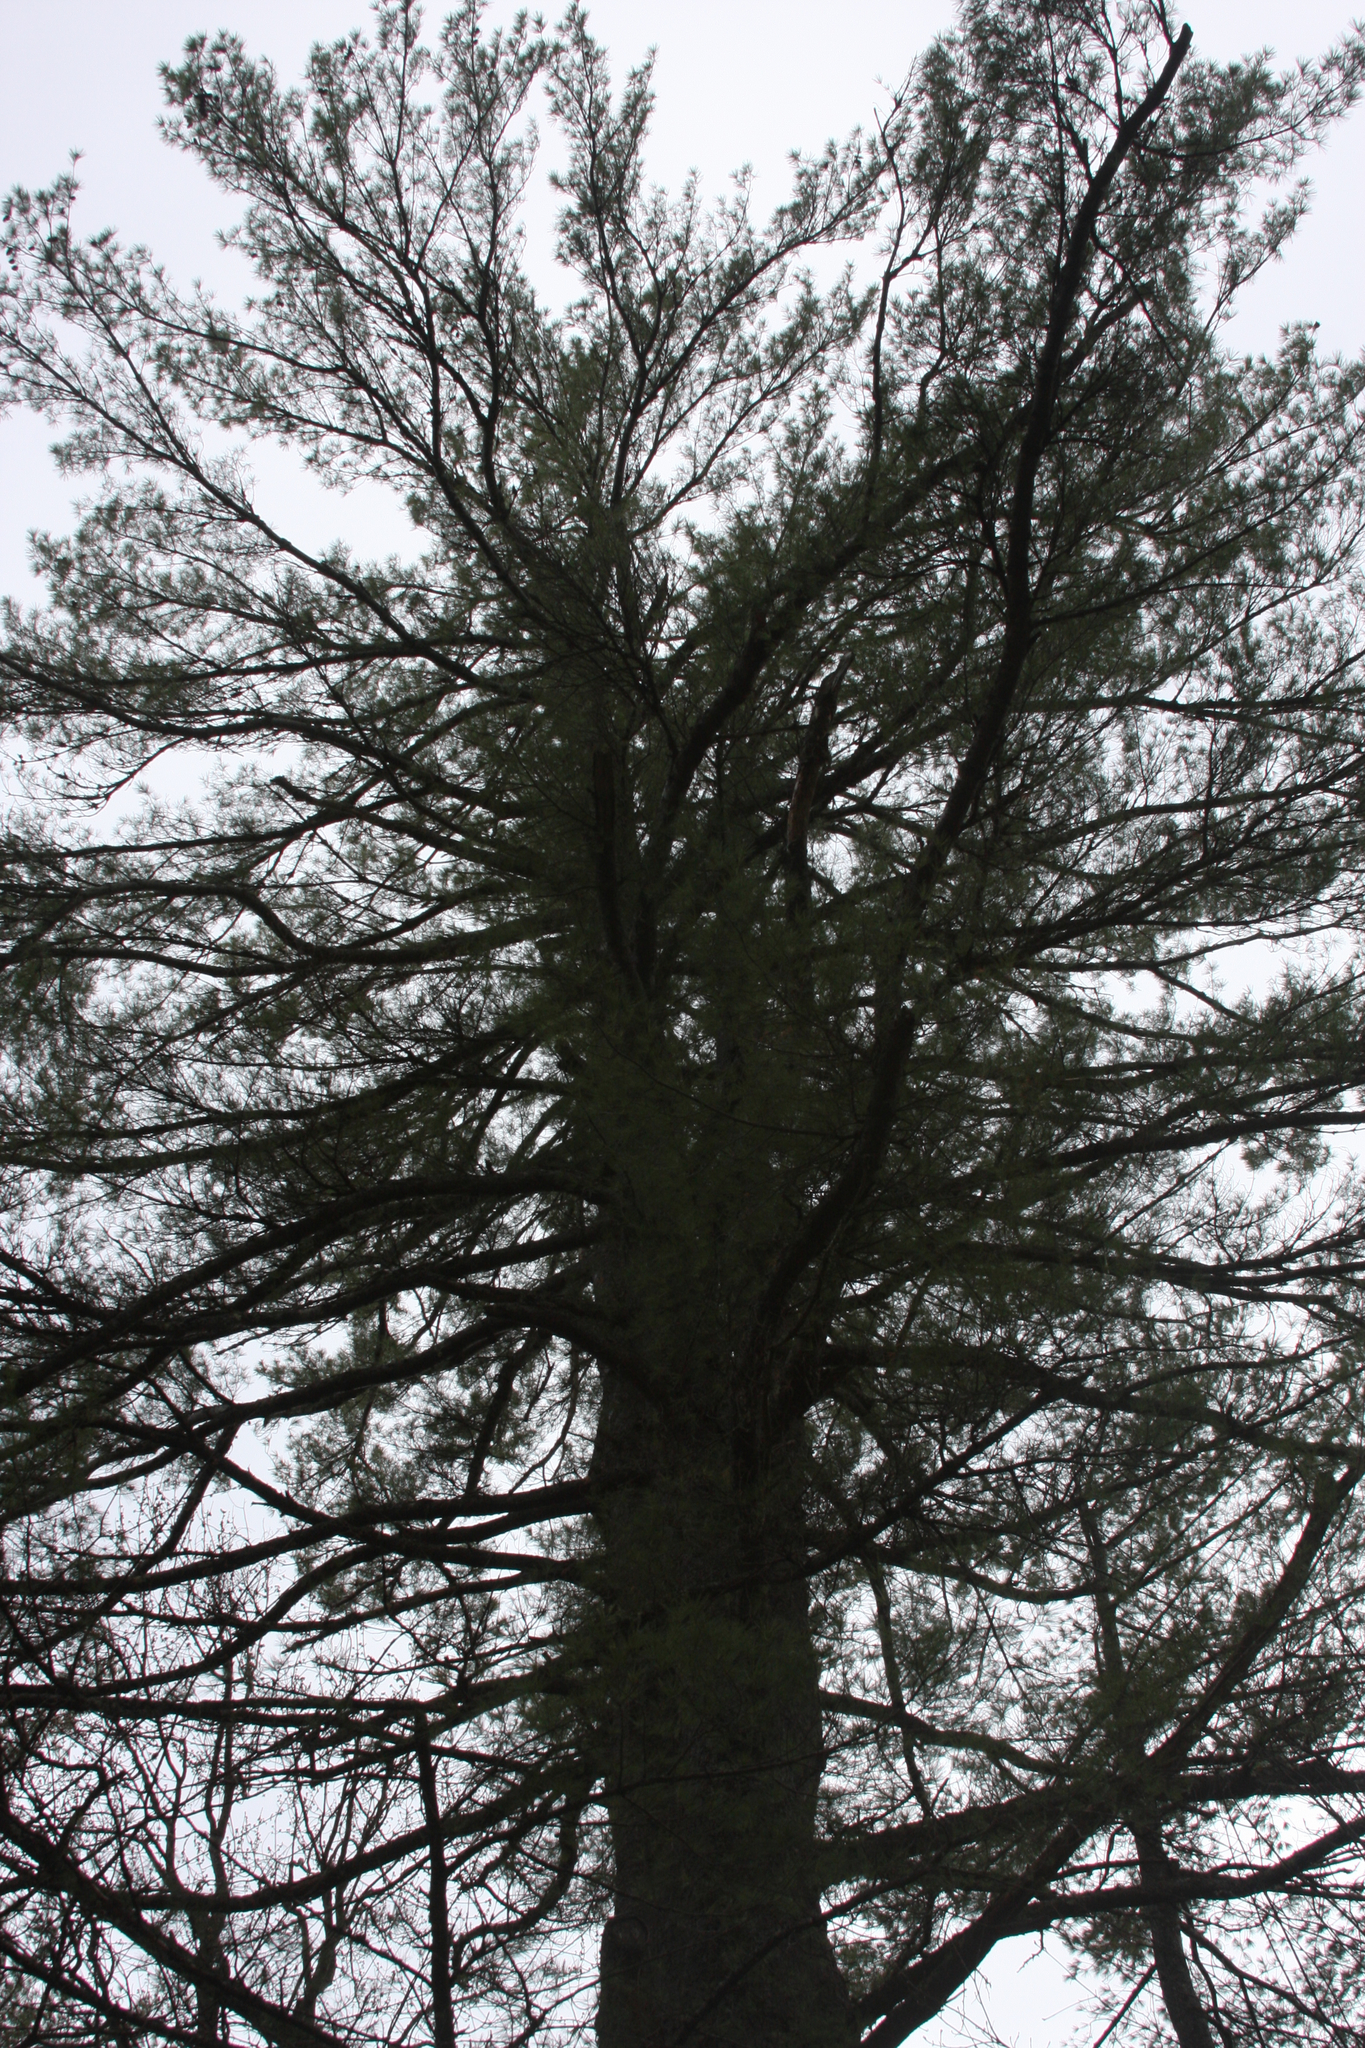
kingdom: Plantae
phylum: Tracheophyta
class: Pinopsida
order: Pinales
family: Pinaceae
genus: Pinus
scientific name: Pinus strobus
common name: Weymouth pine
